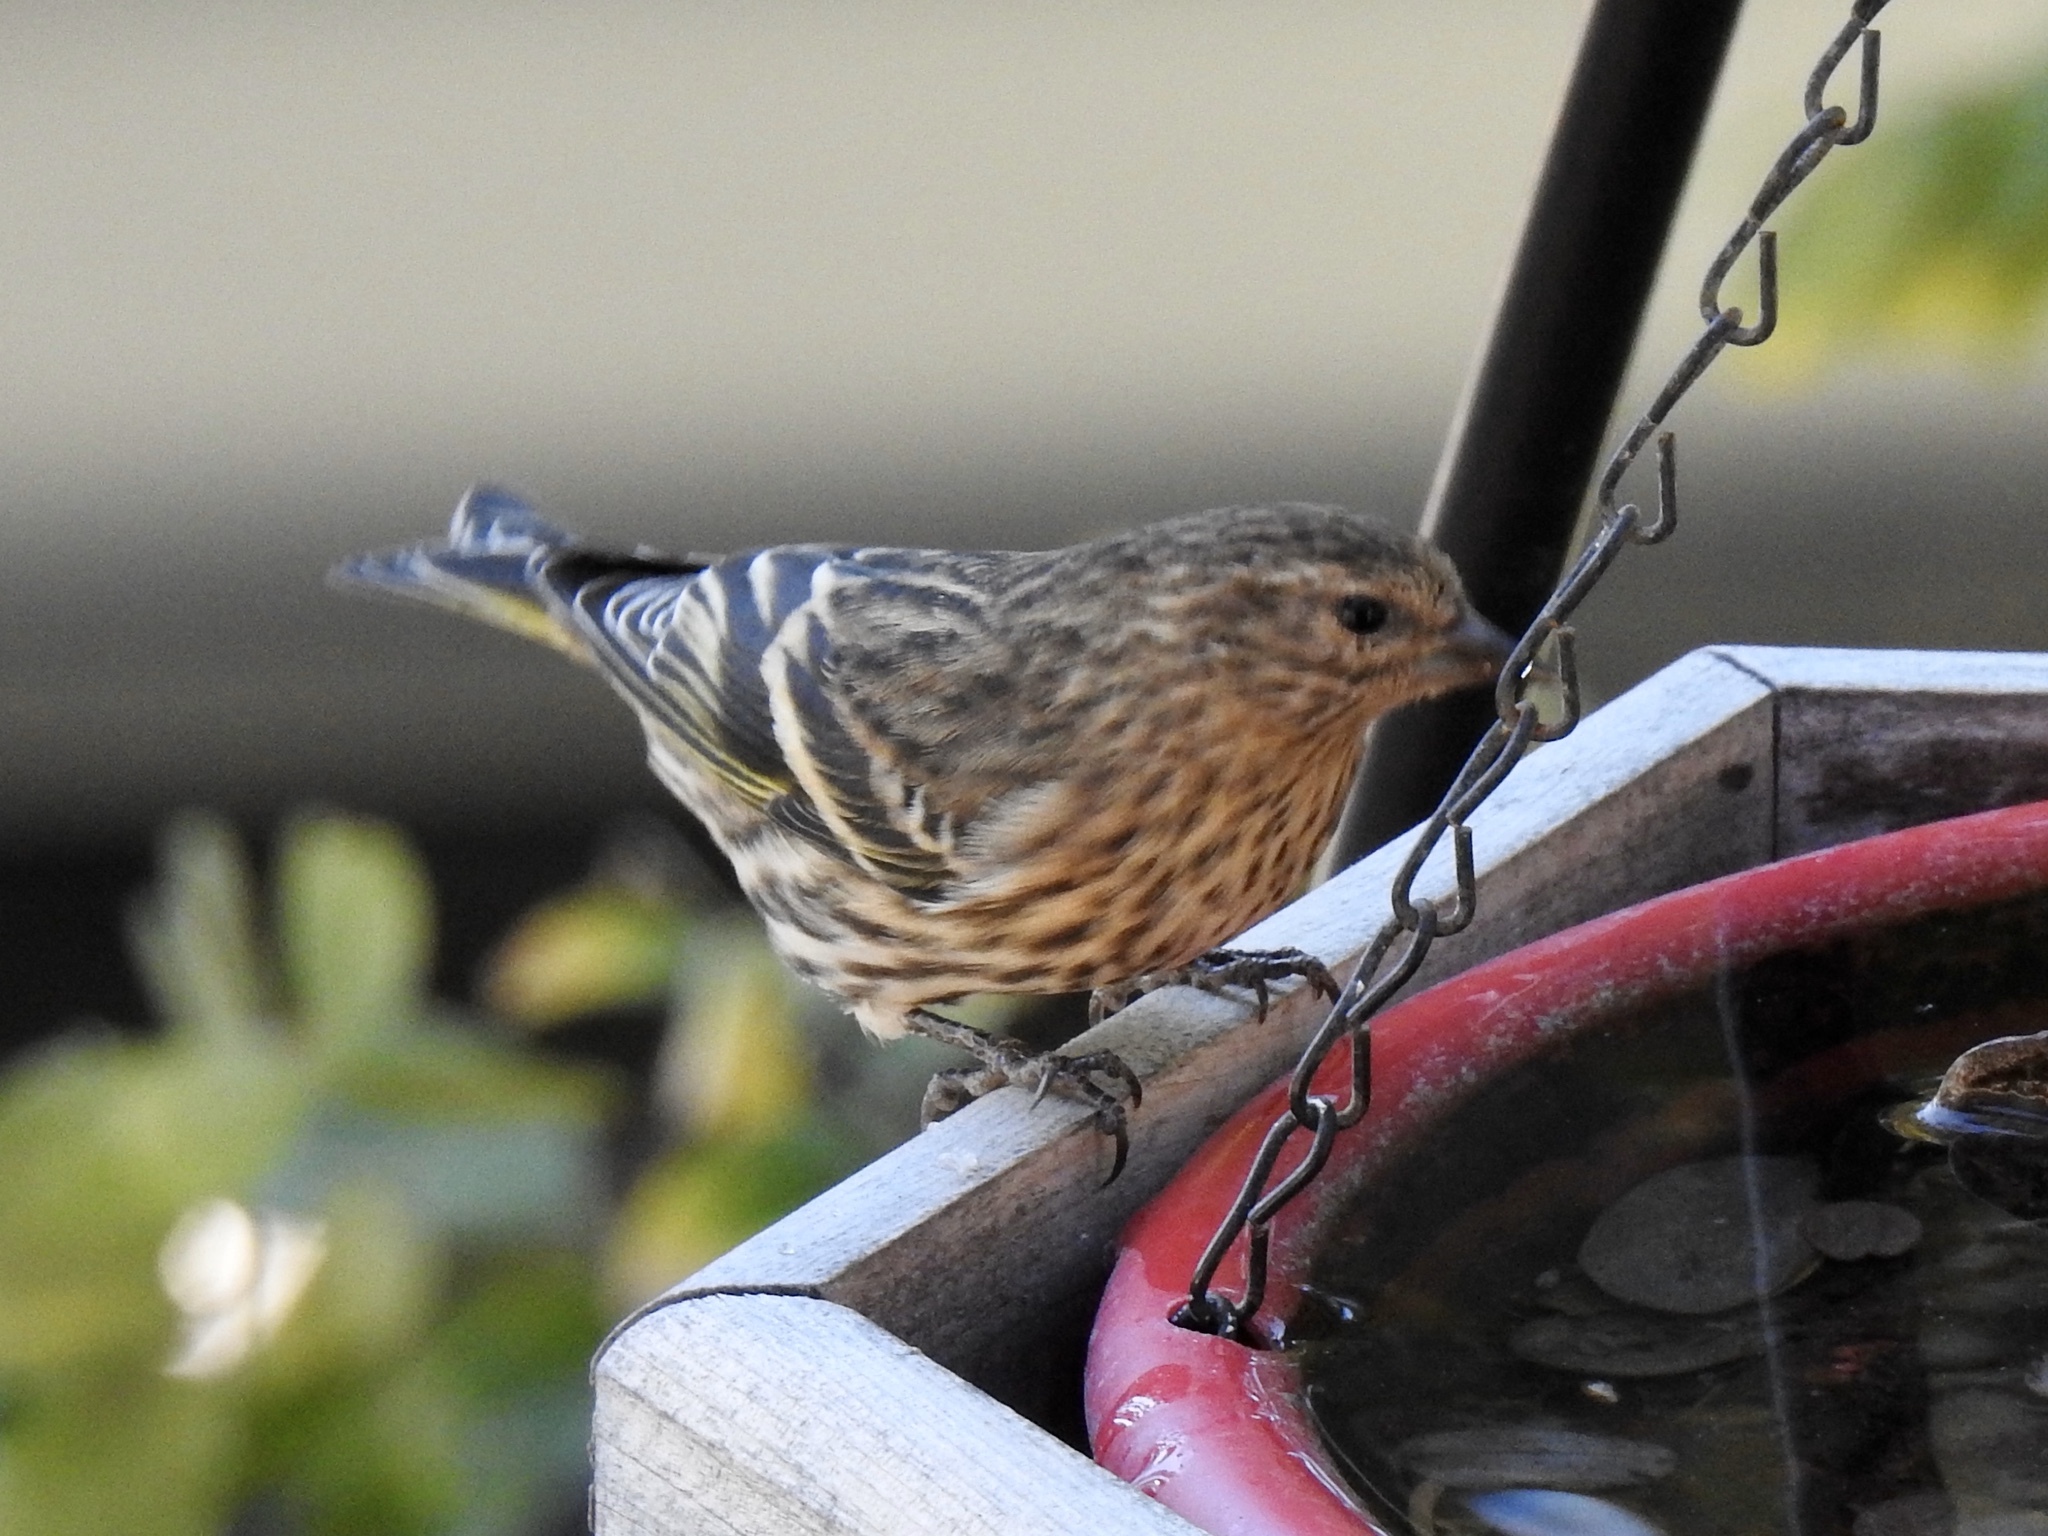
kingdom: Animalia
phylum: Chordata
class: Aves
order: Passeriformes
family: Fringillidae
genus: Spinus
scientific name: Spinus pinus
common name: Pine siskin
